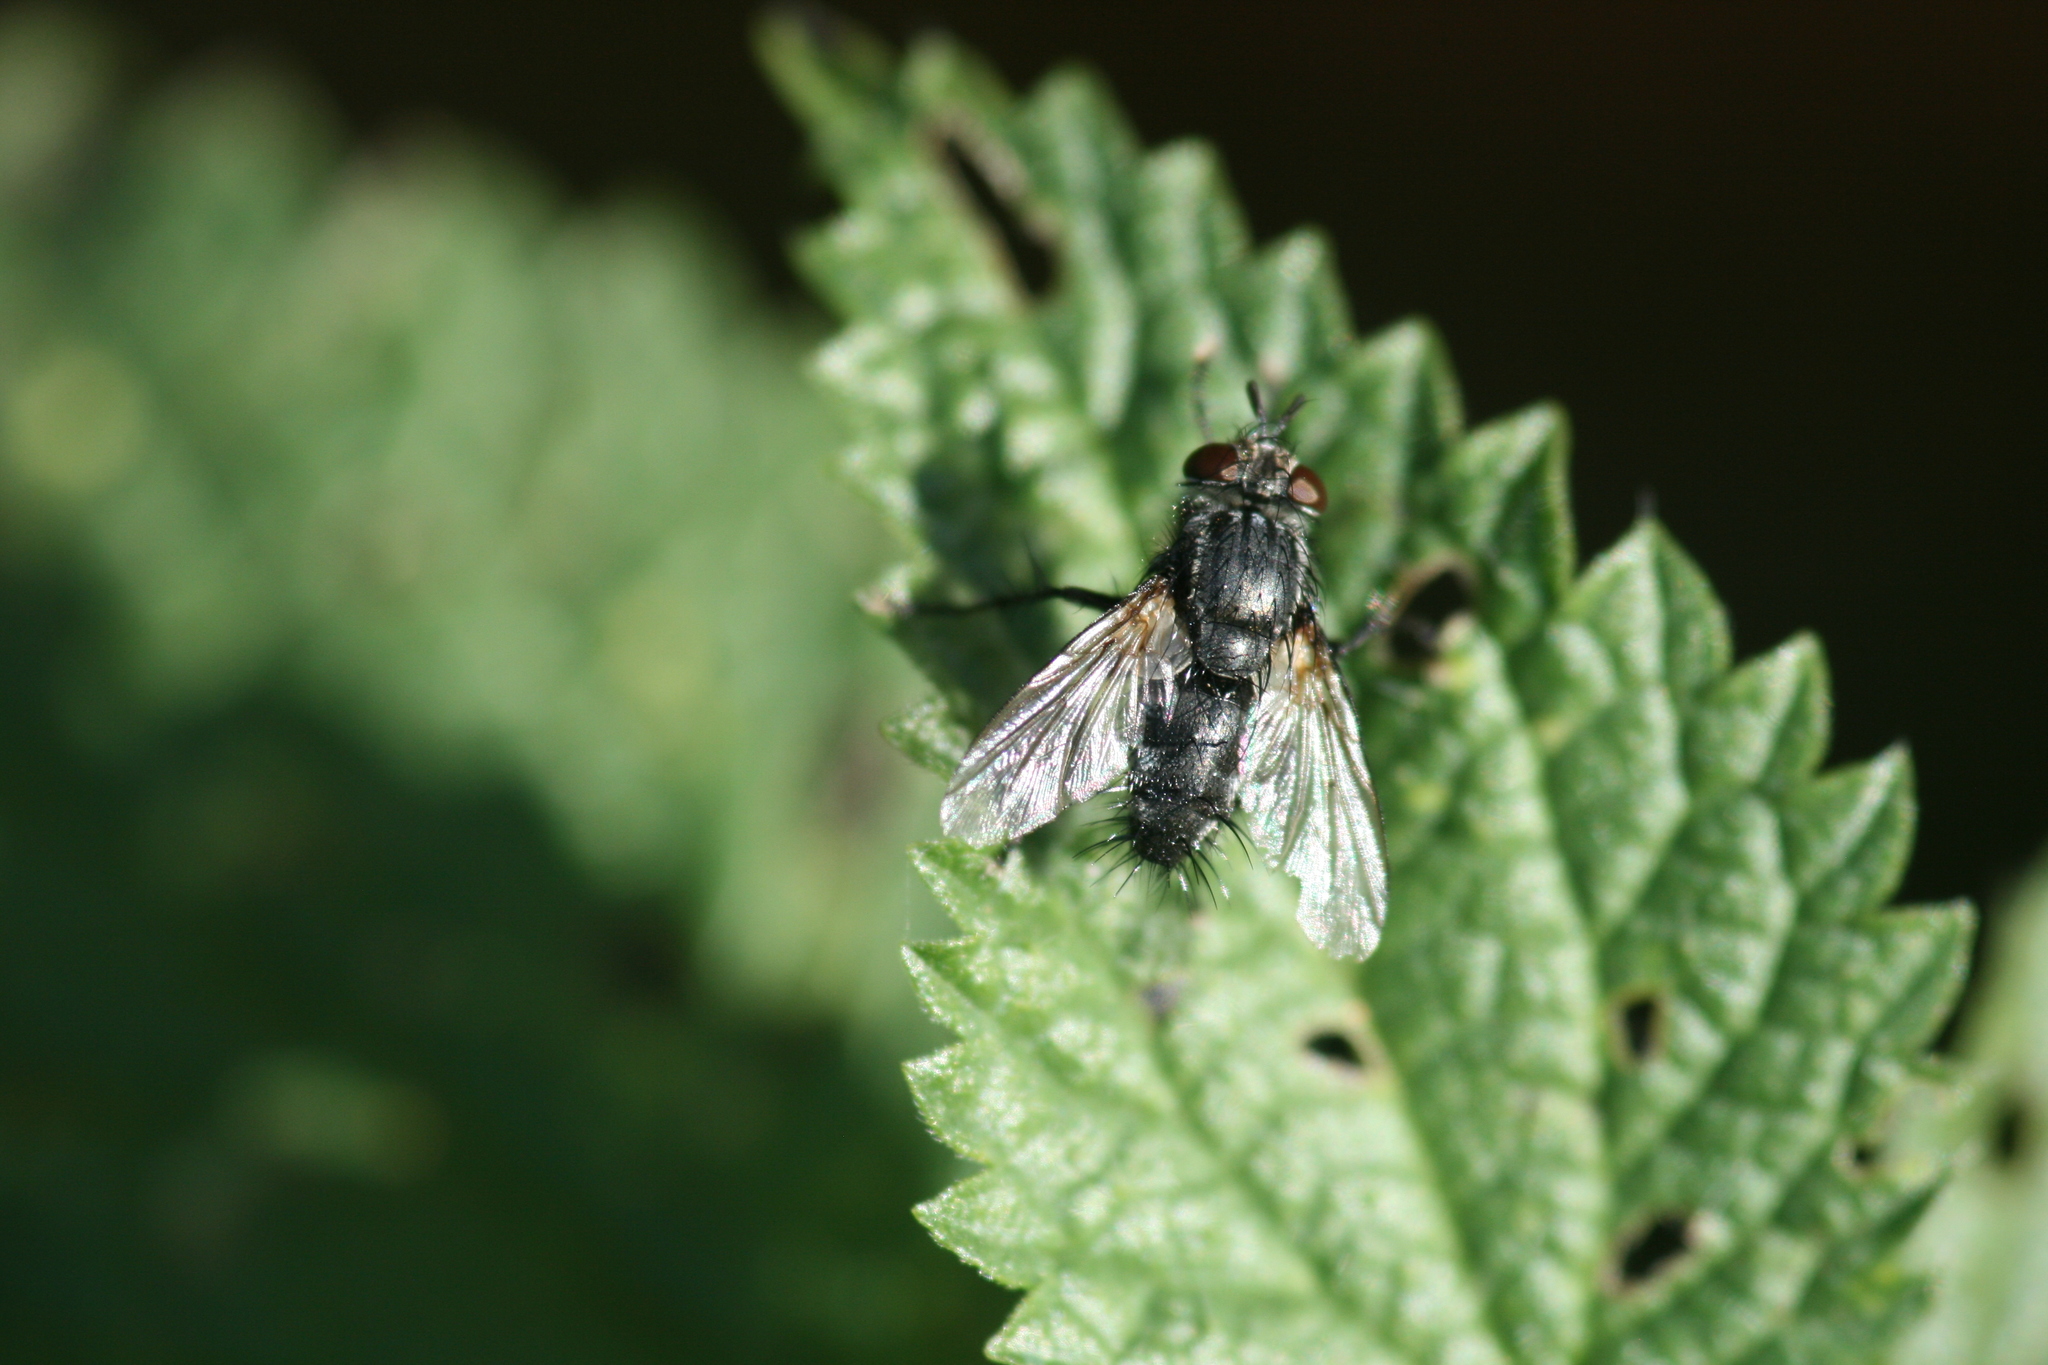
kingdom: Animalia
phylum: Arthropoda
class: Insecta
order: Diptera
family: Tachinidae
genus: Voria
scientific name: Voria ruralis
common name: Parasitic fly
